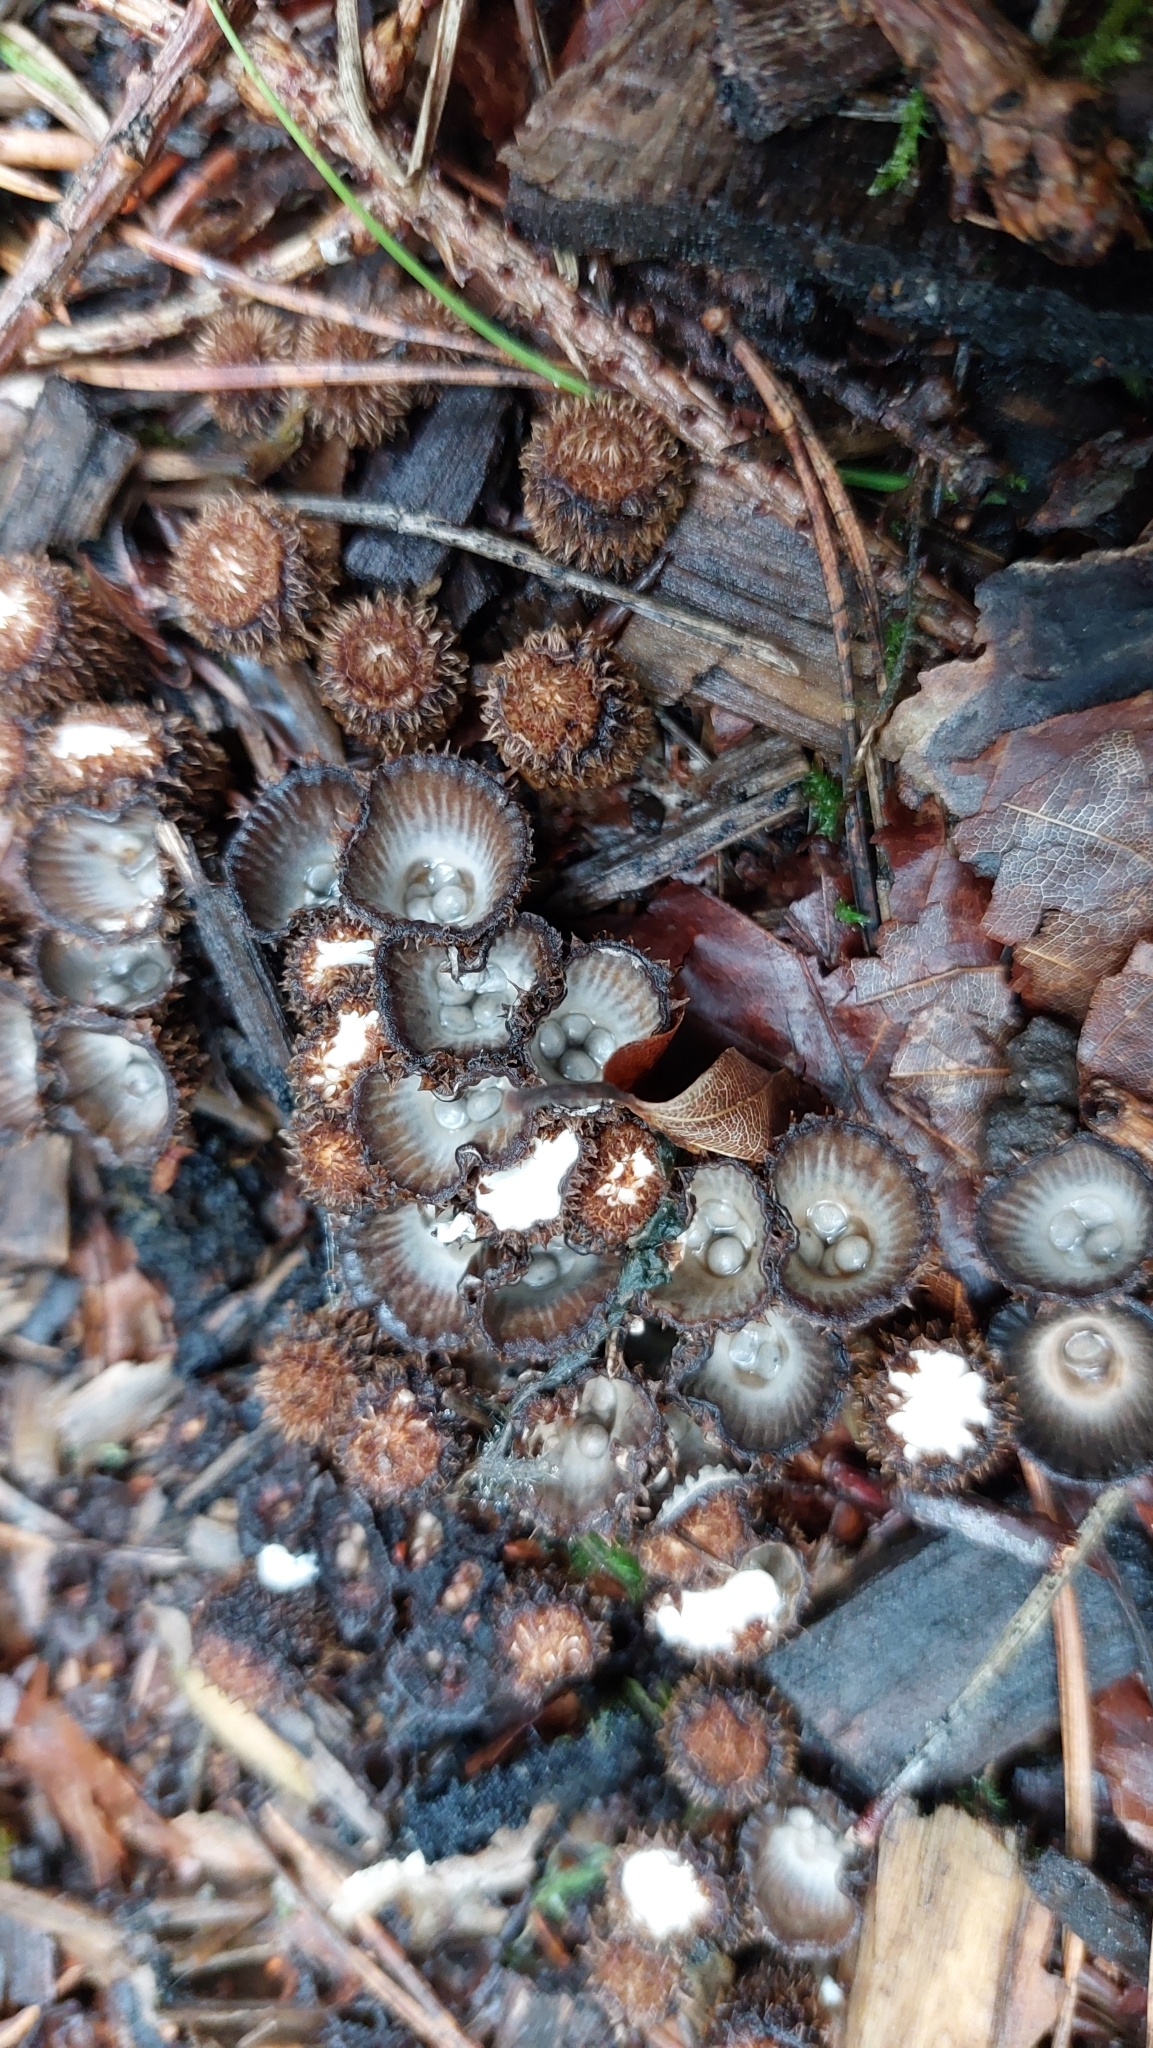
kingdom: Fungi
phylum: Basidiomycota
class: Agaricomycetes
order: Agaricales
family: Agaricaceae
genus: Cyathus
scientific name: Cyathus striatus
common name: Fluted bird's nest
